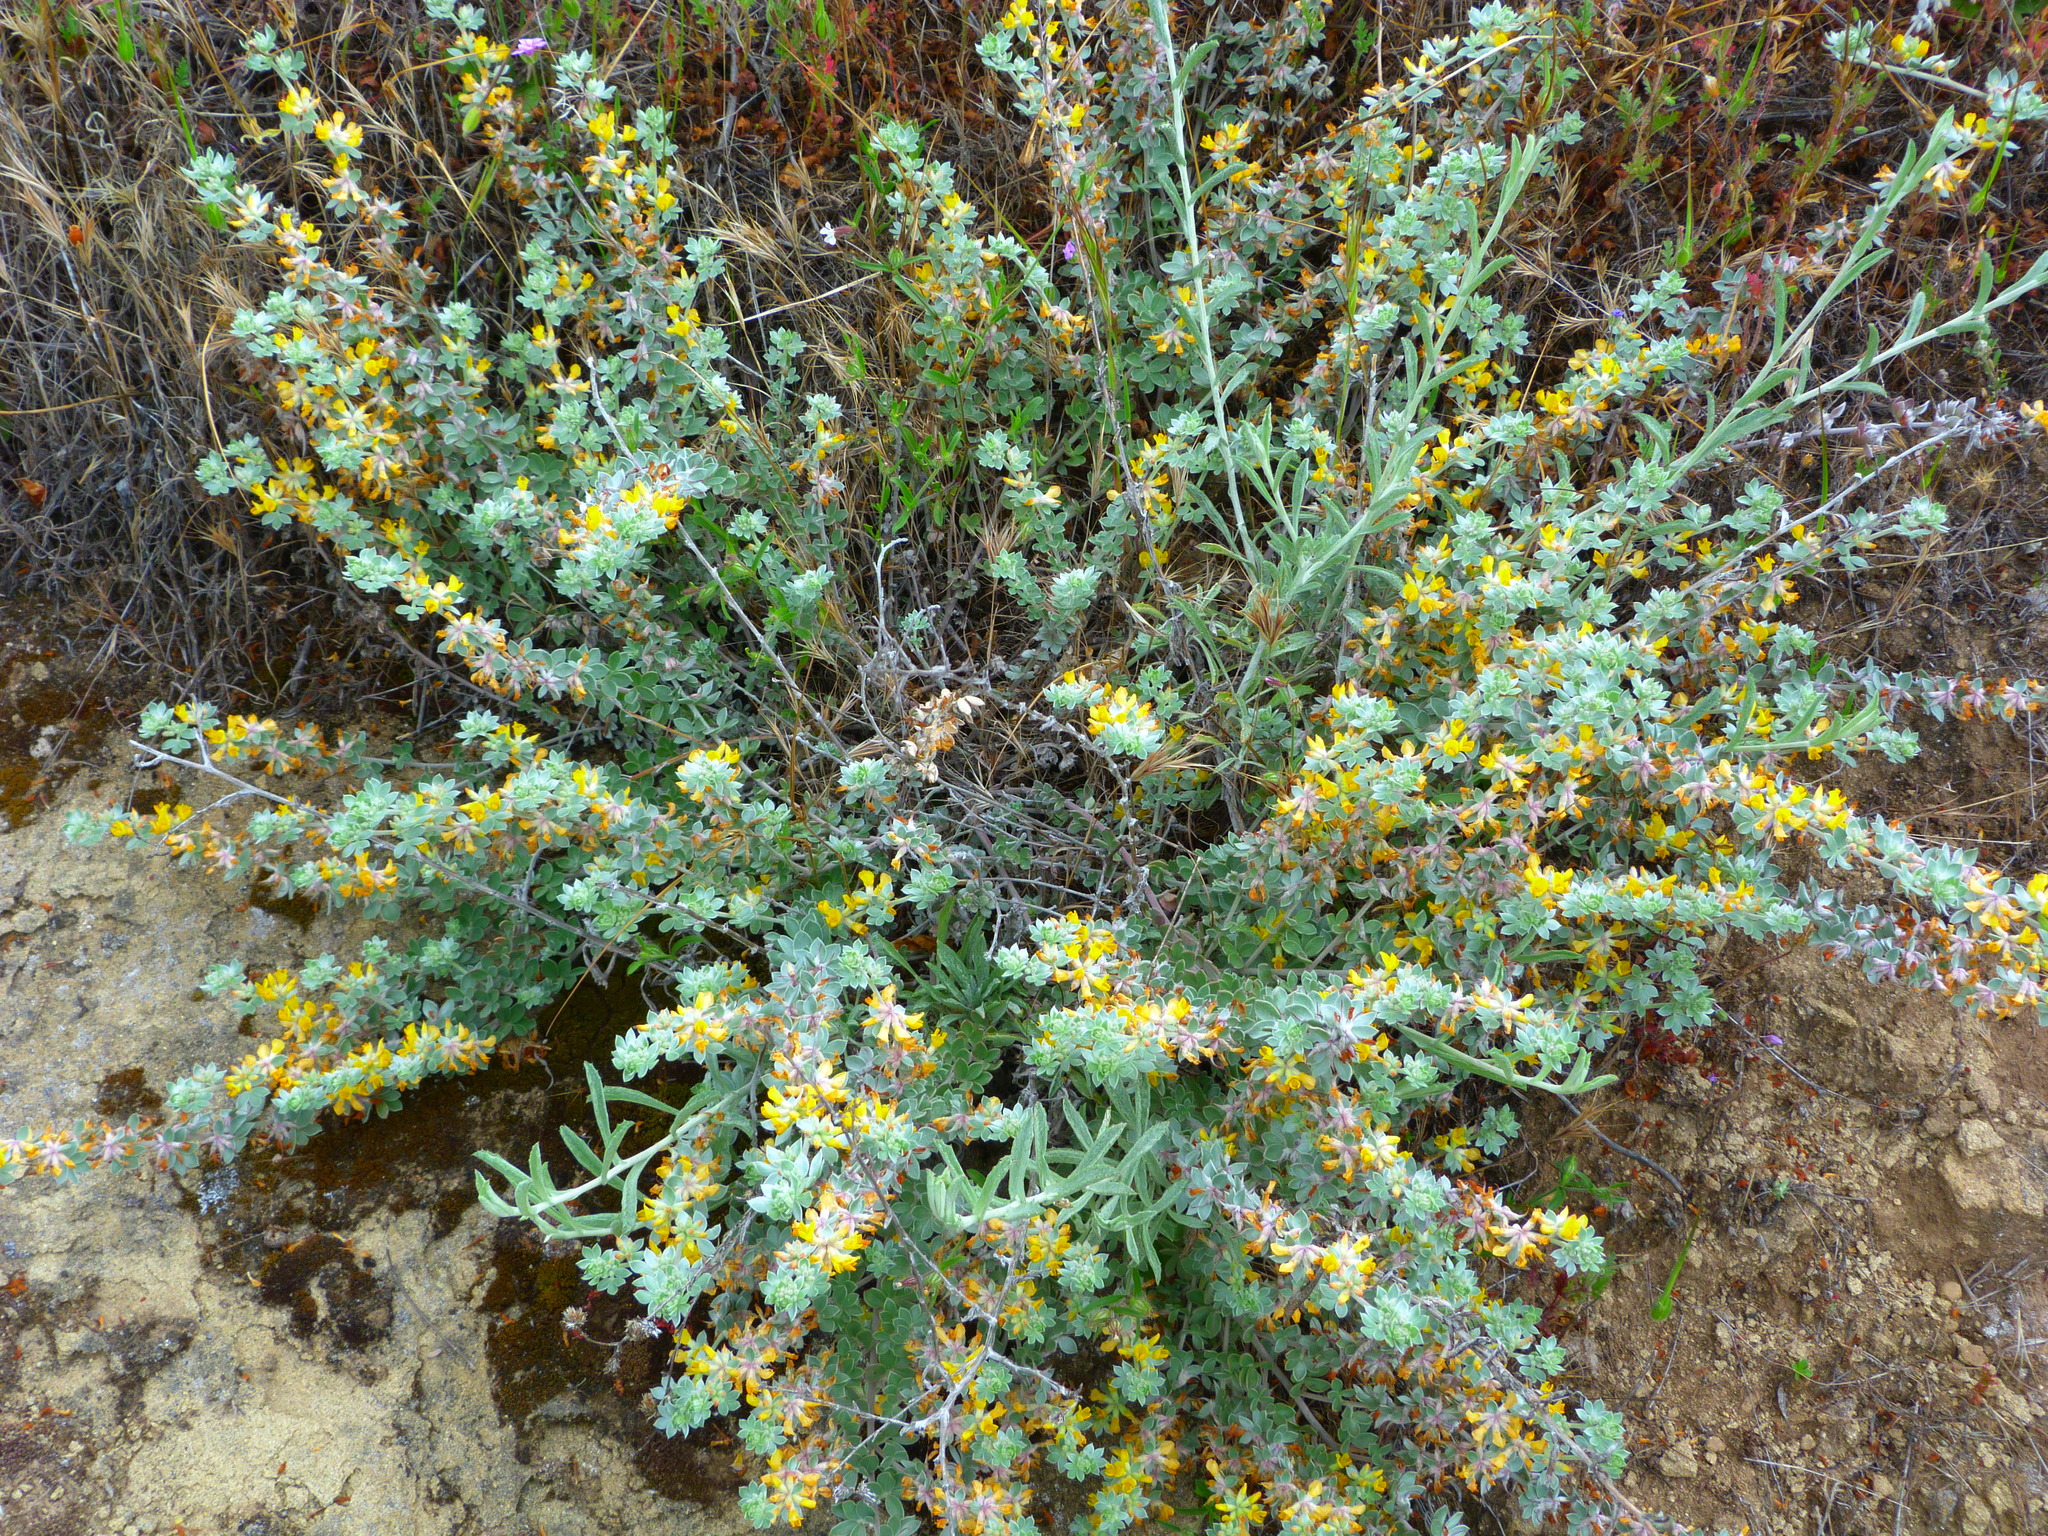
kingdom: Plantae
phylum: Tracheophyta
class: Magnoliopsida
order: Fabales
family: Fabaceae
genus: Acmispon
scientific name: Acmispon argophyllus
